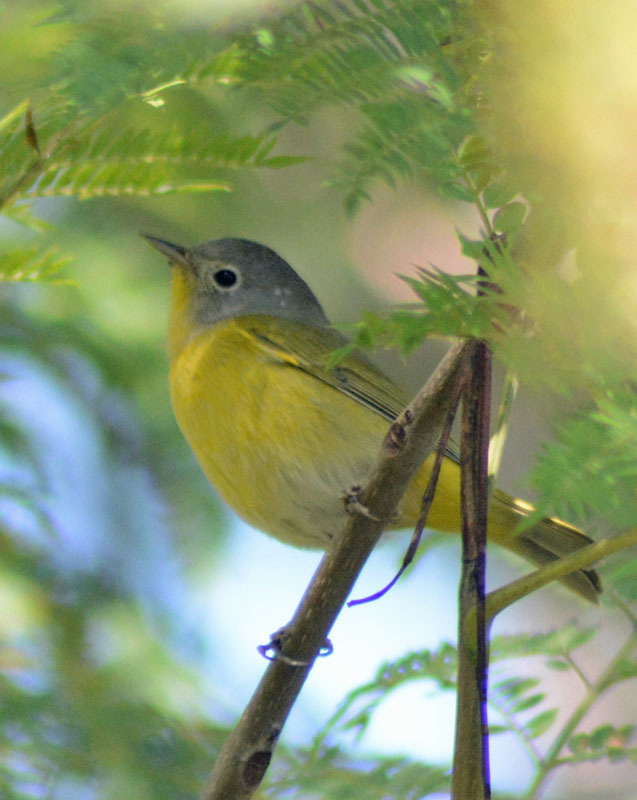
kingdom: Animalia
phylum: Chordata
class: Aves
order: Passeriformes
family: Parulidae
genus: Leiothlypis
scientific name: Leiothlypis ruficapilla
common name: Nashville warbler
